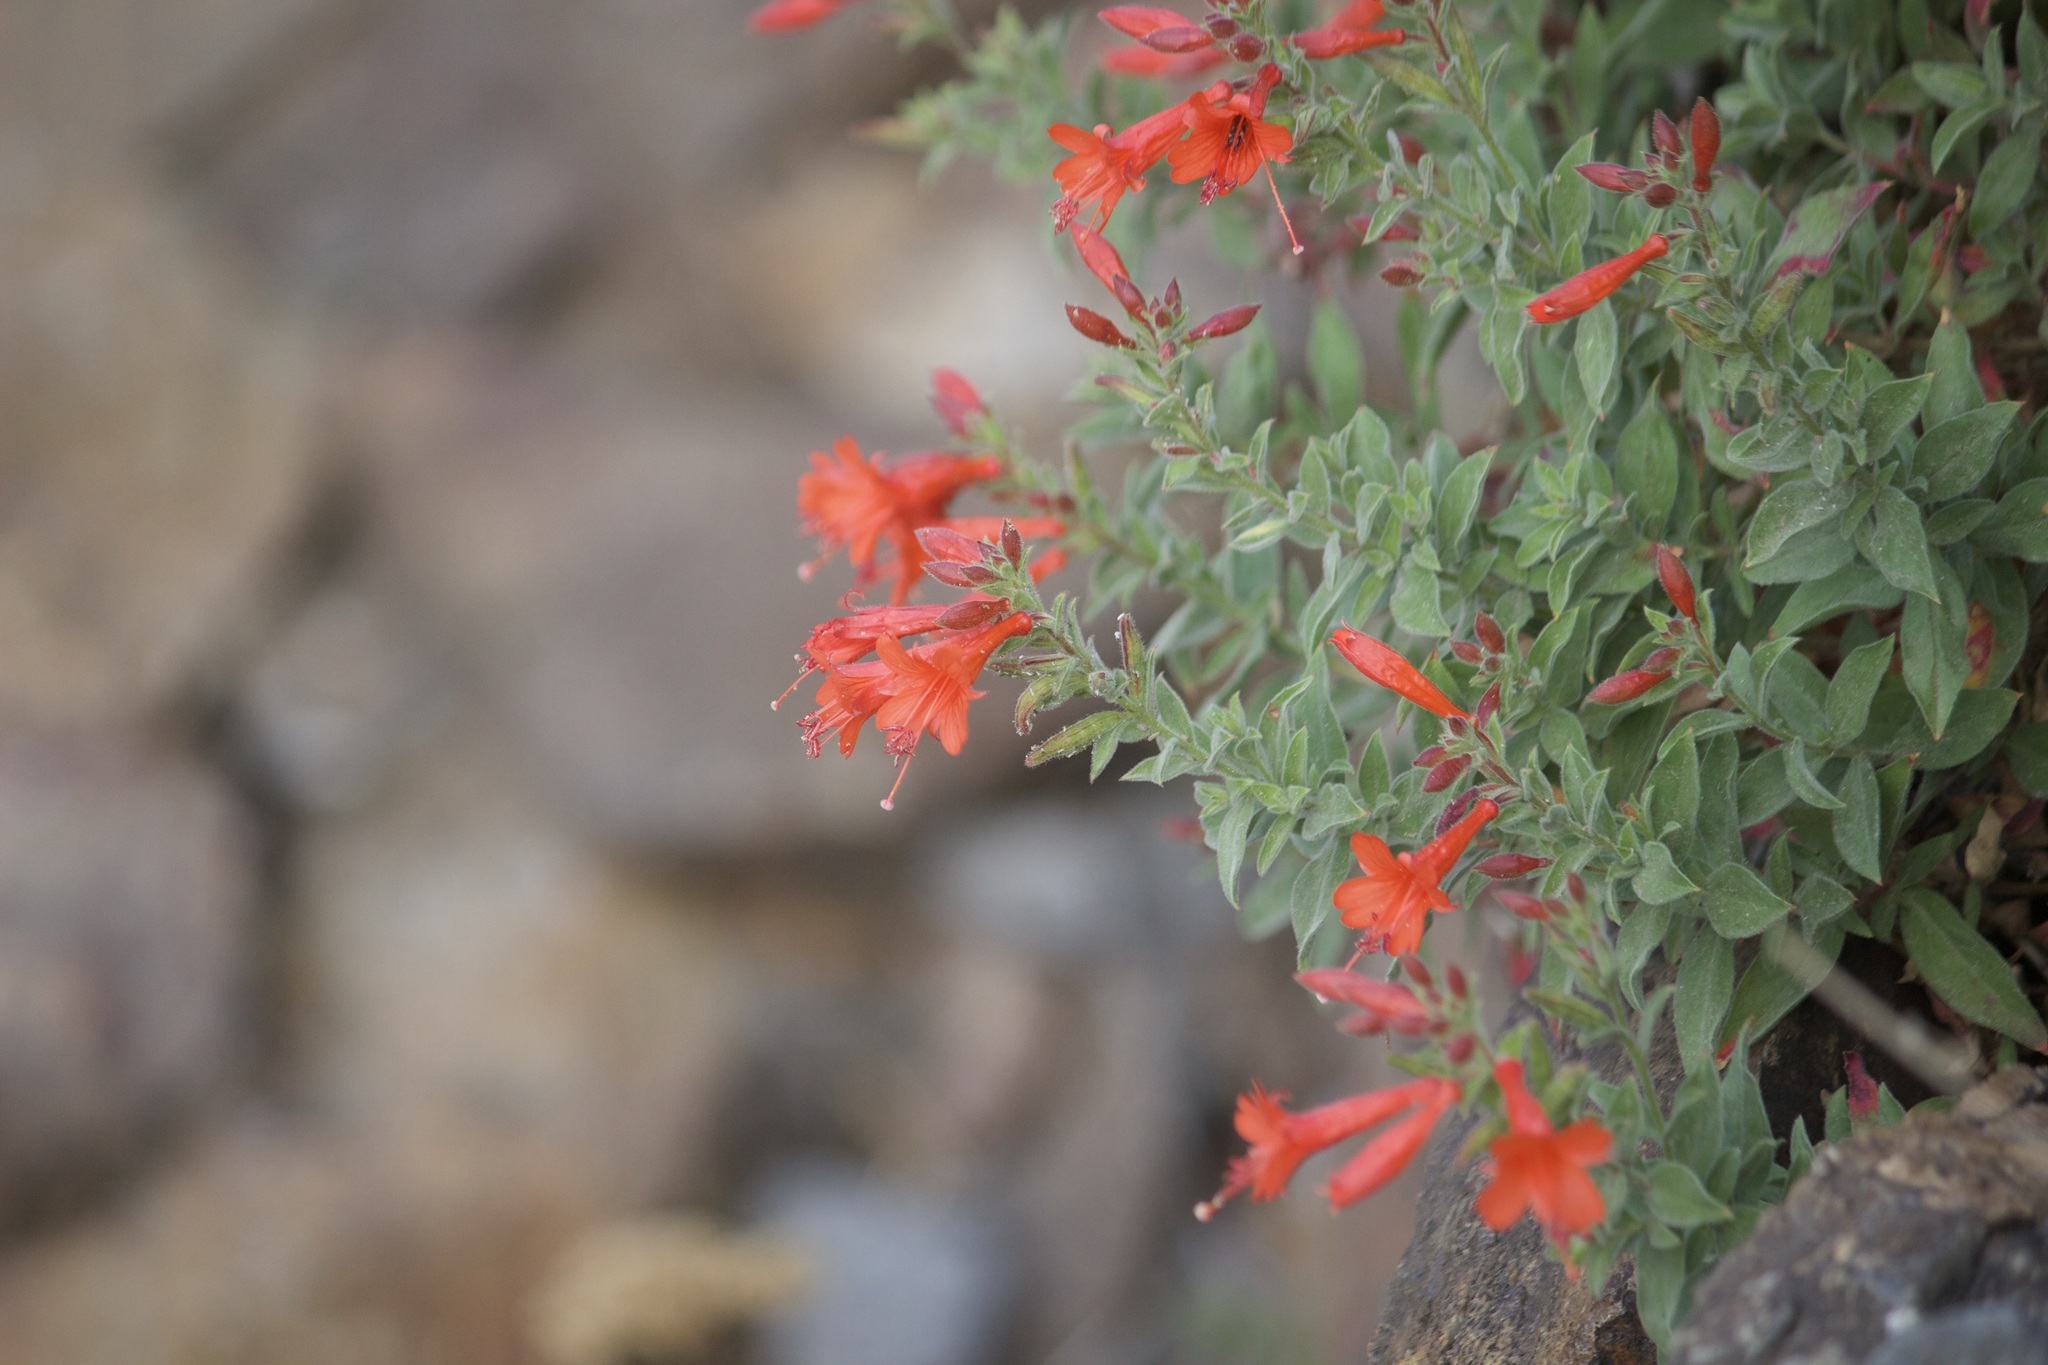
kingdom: Plantae
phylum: Tracheophyta
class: Magnoliopsida
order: Myrtales
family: Onagraceae
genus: Epilobium
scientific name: Epilobium canum
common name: California-fuchsia
